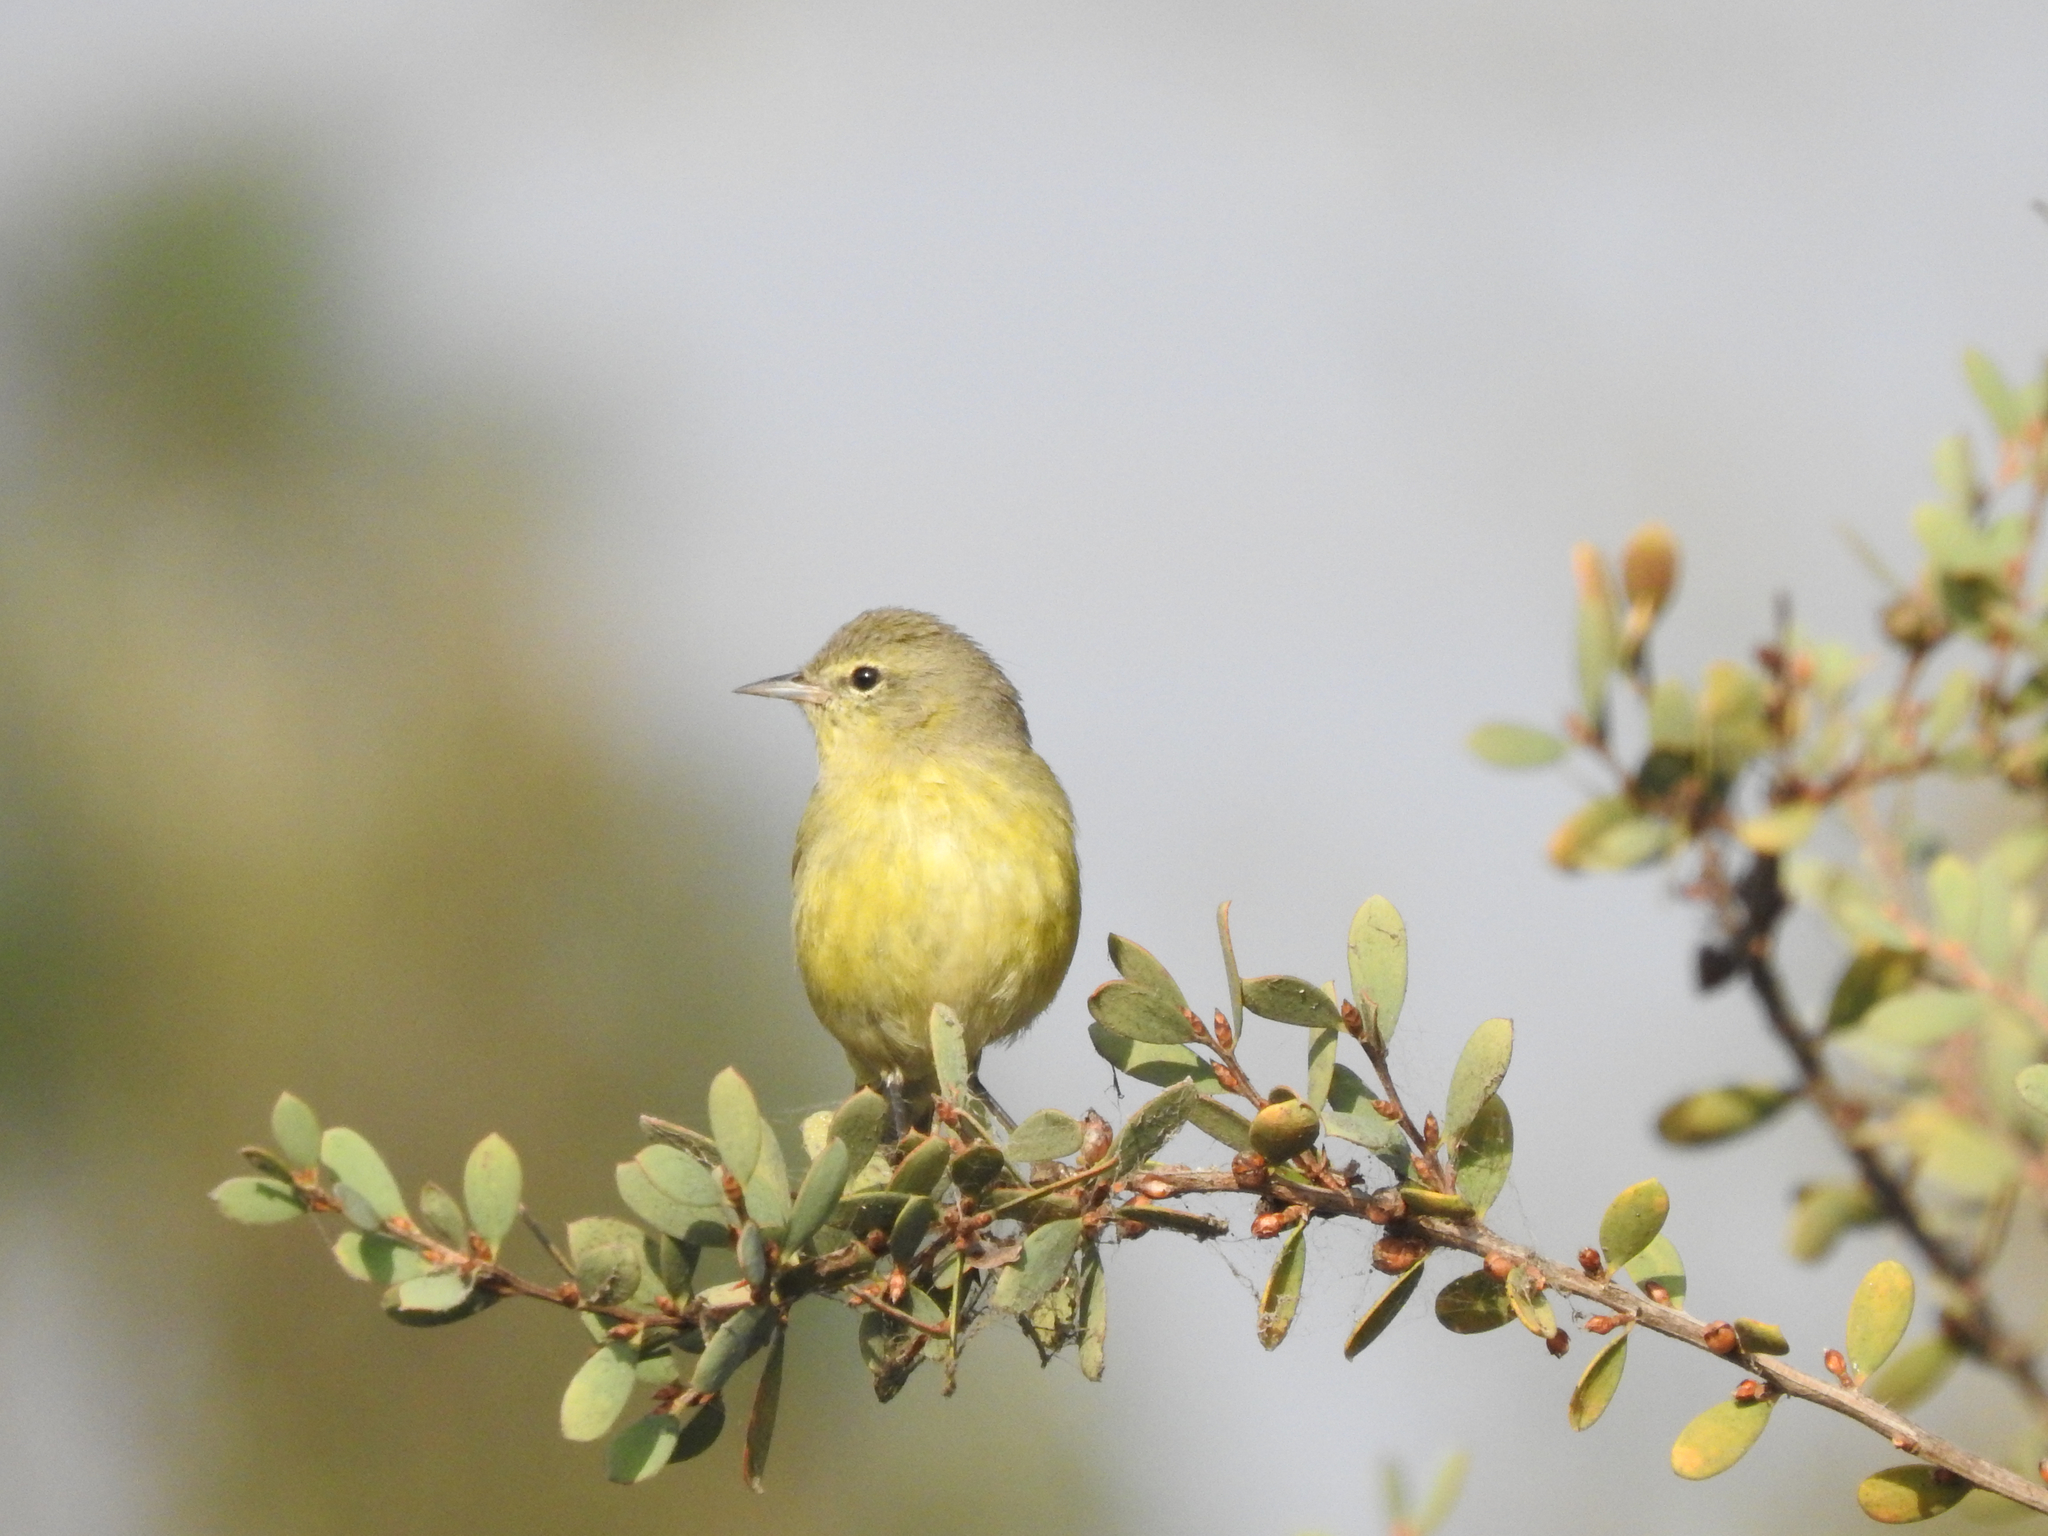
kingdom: Animalia
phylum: Chordata
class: Aves
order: Passeriformes
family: Parulidae
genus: Leiothlypis
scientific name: Leiothlypis celata
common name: Orange-crowned warbler
